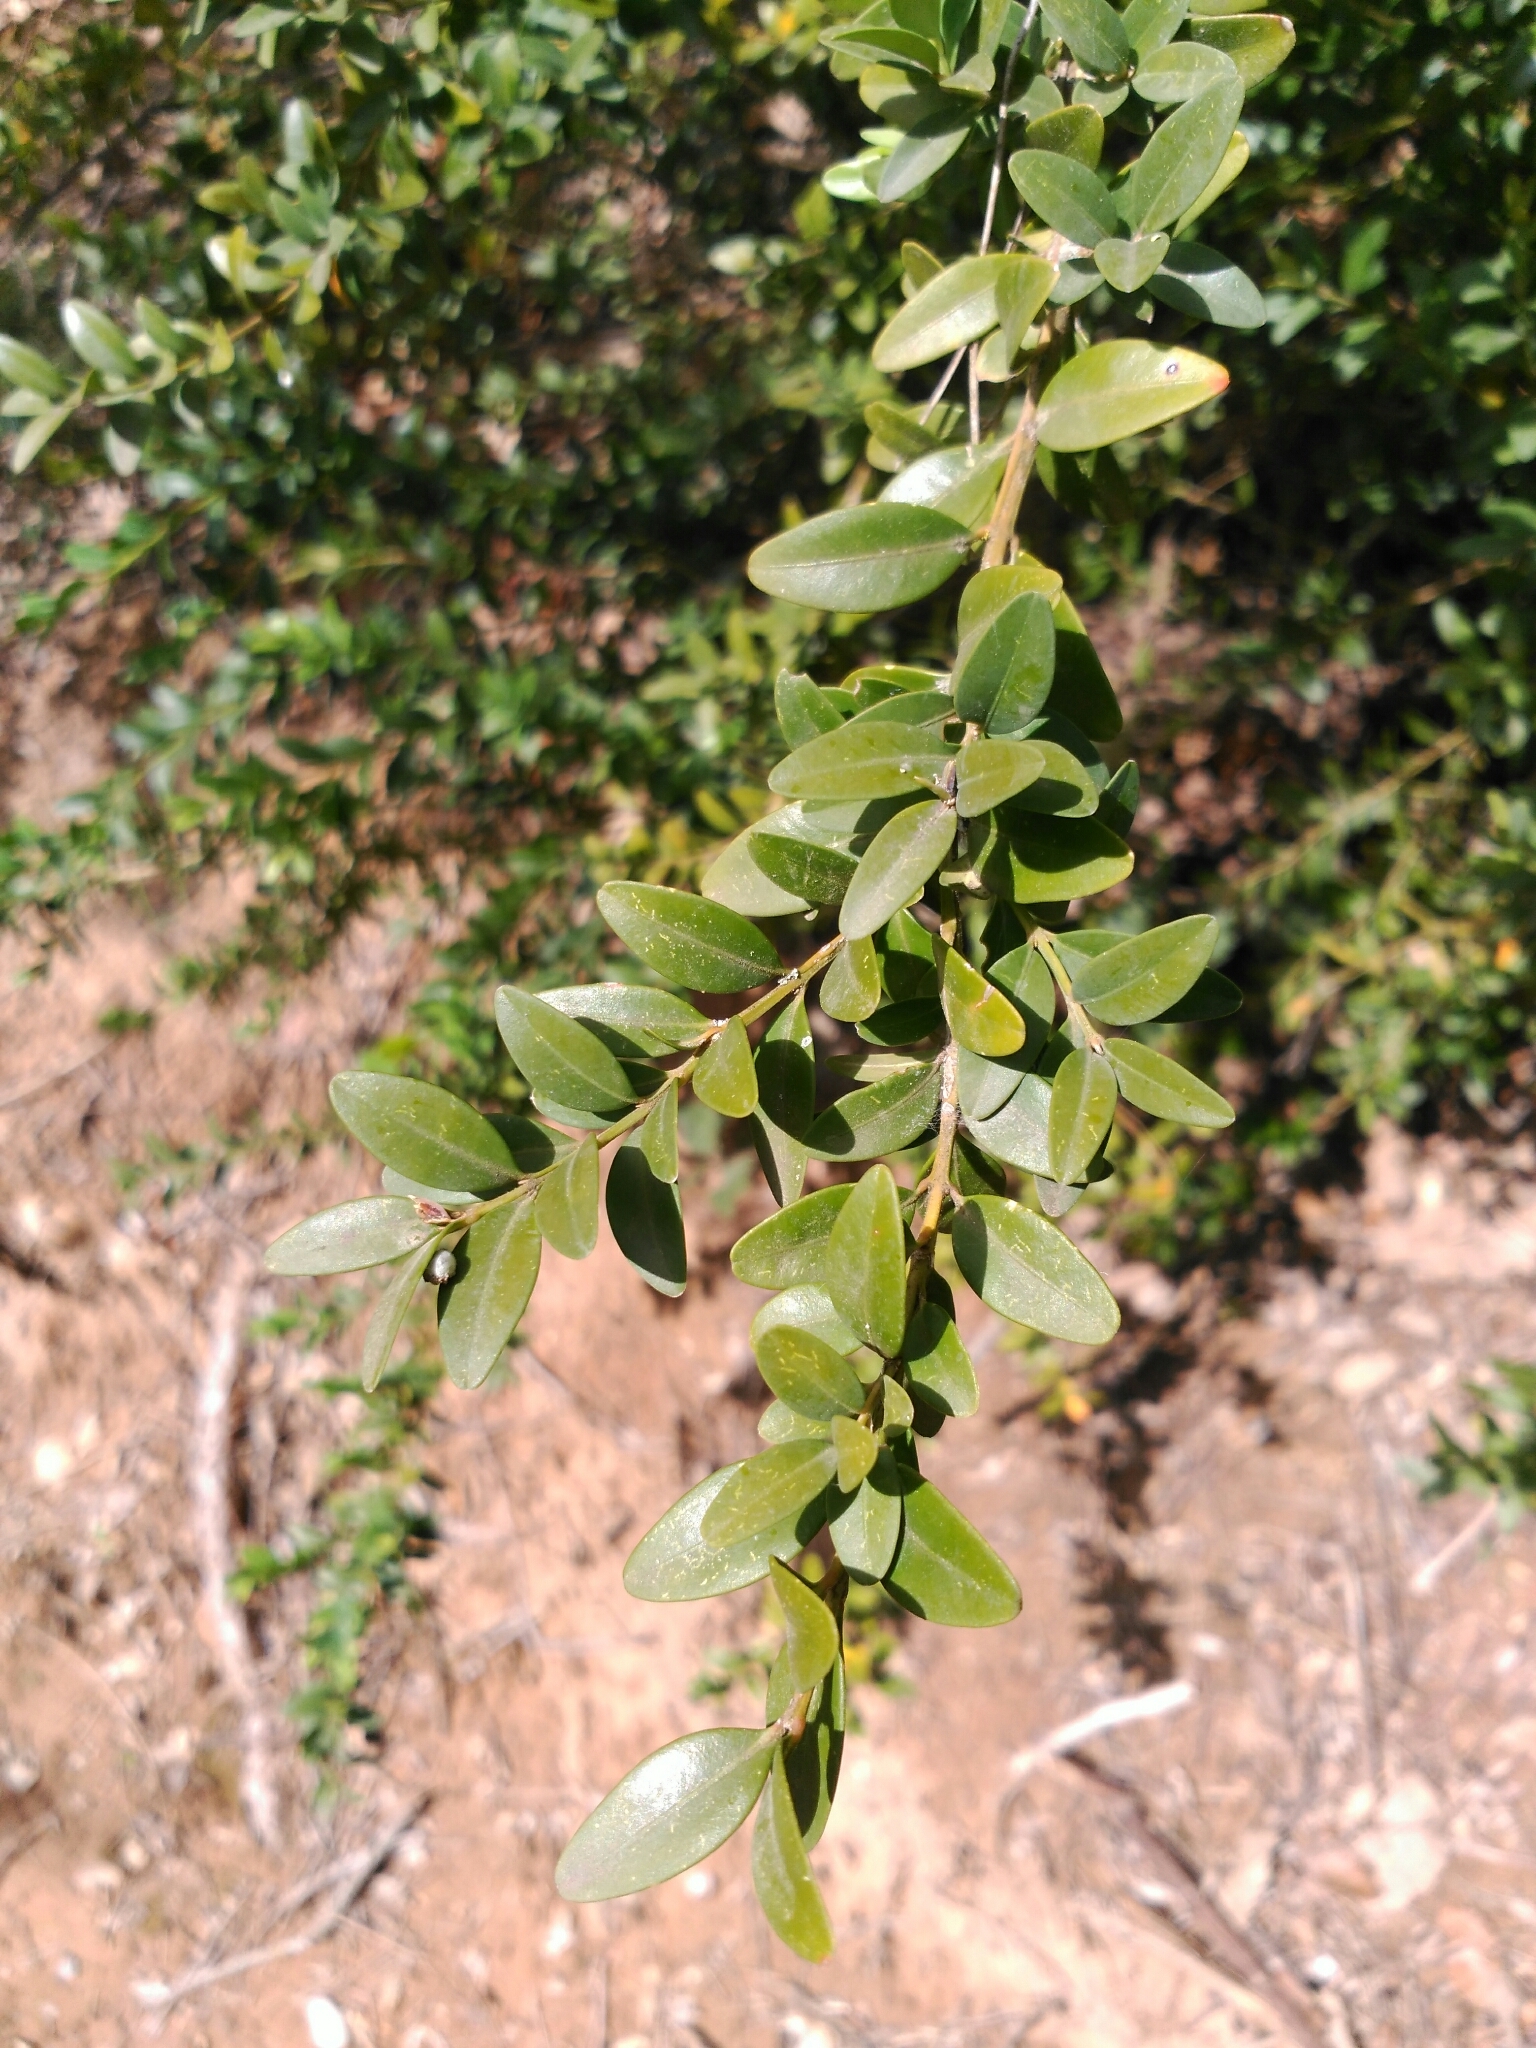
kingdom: Plantae
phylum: Tracheophyta
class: Magnoliopsida
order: Buxales
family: Buxaceae
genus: Buxus
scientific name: Buxus sempervirens
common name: Box
